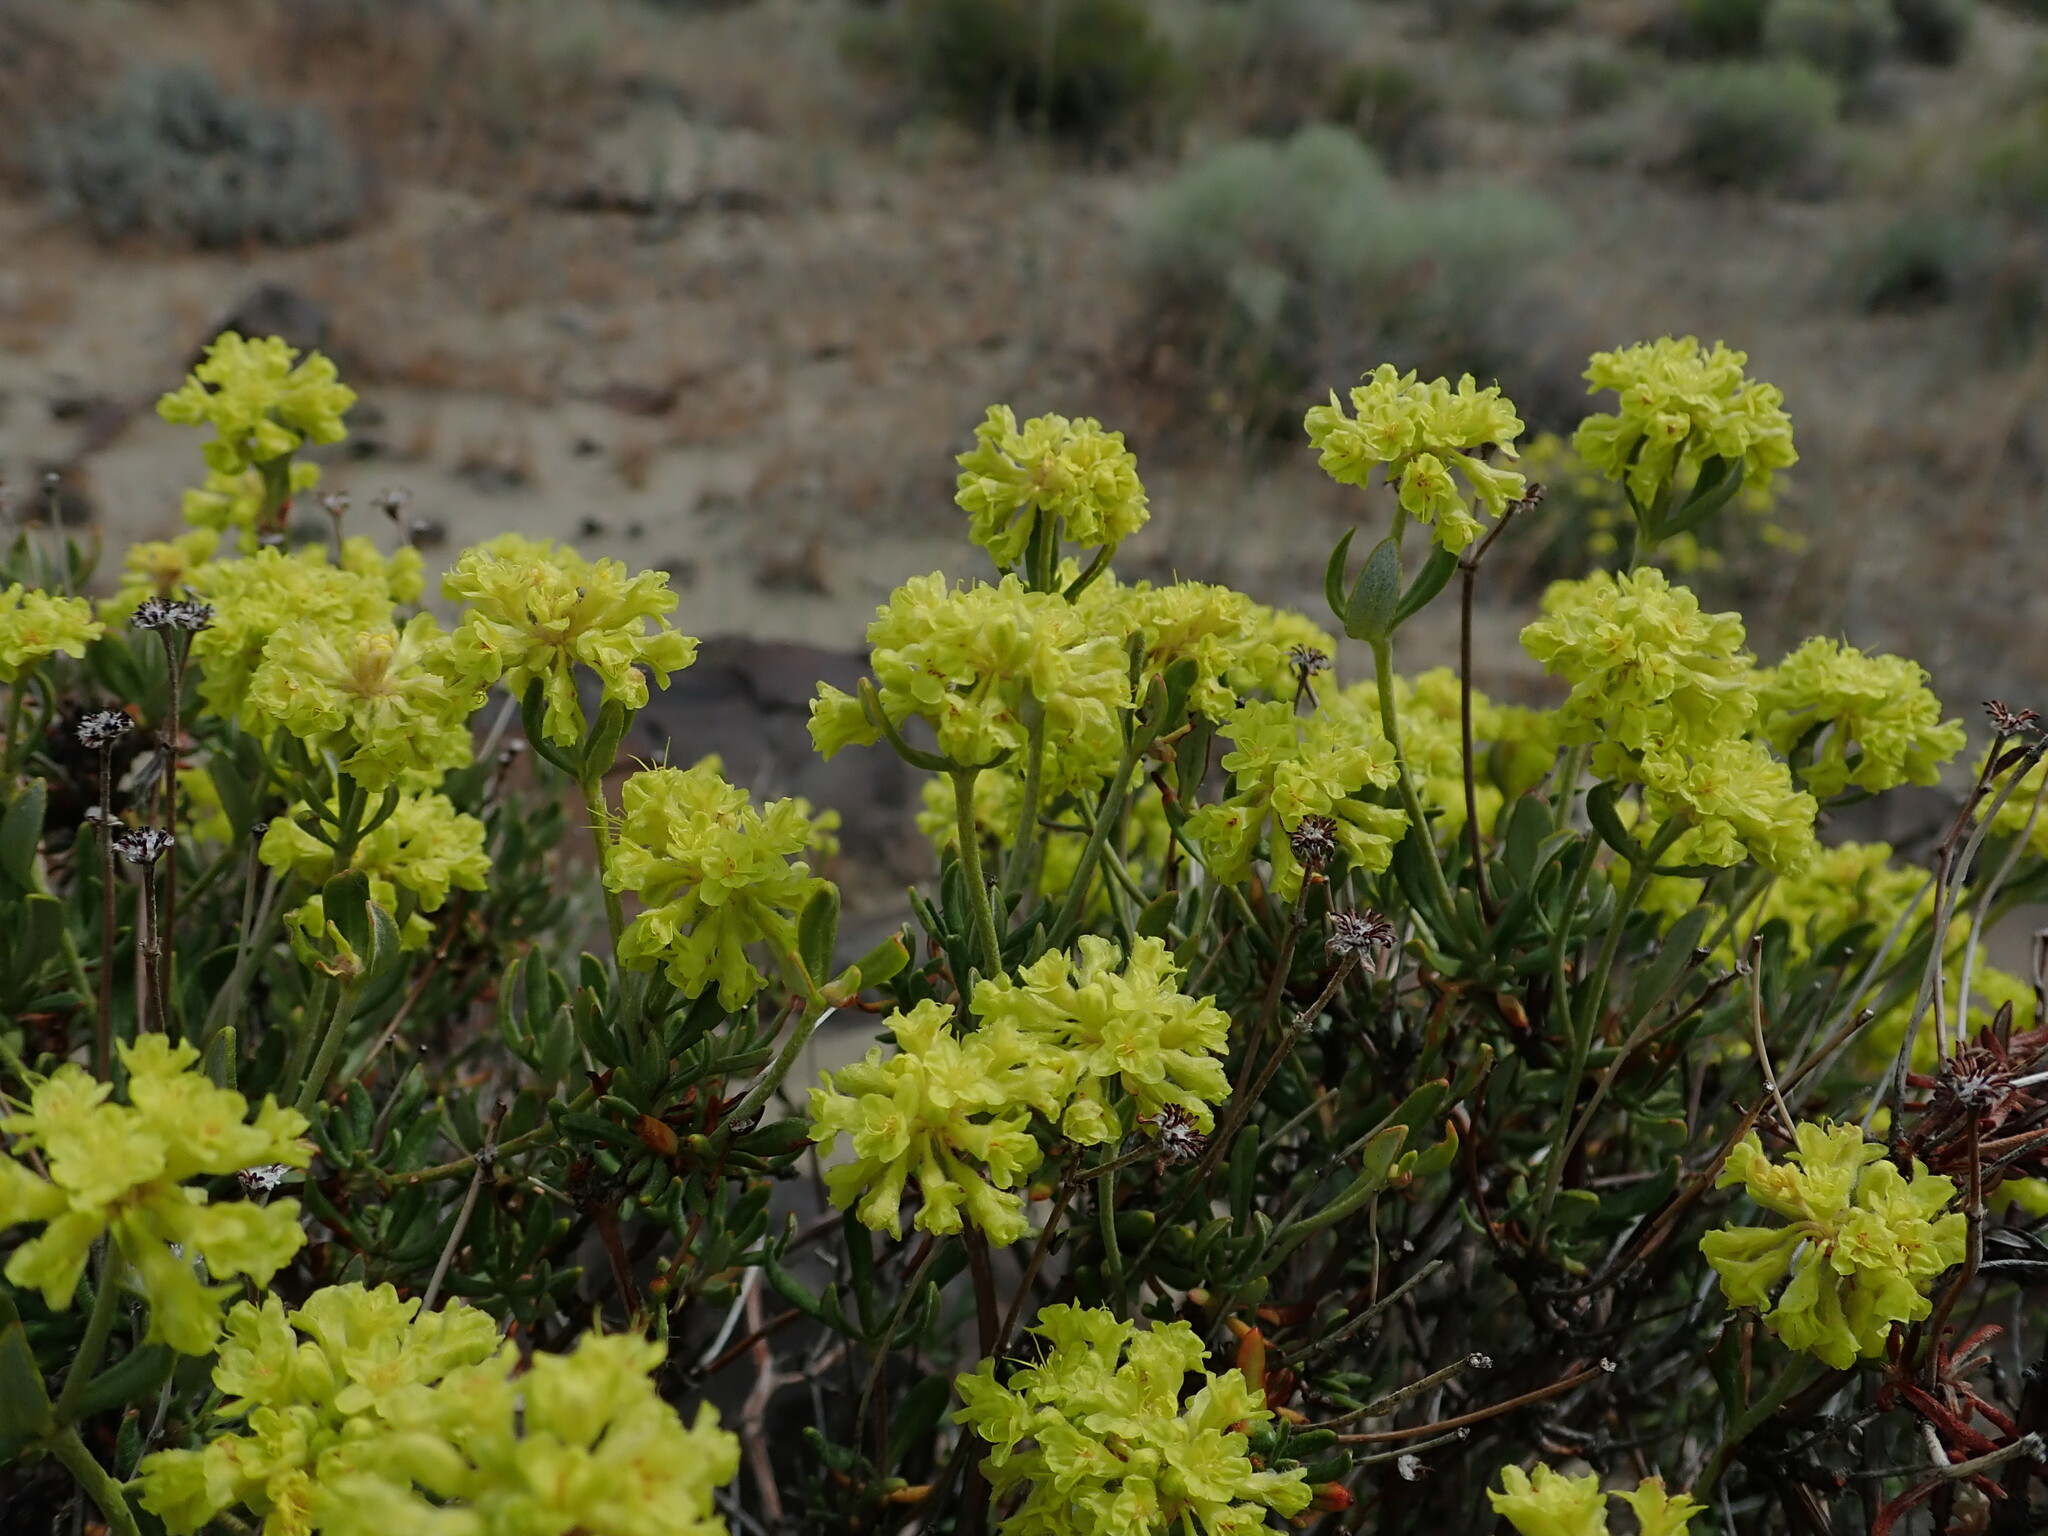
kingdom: Plantae
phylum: Tracheophyta
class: Magnoliopsida
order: Caryophyllales
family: Polygonaceae
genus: Eriogonum
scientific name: Eriogonum sphaerocephalum
